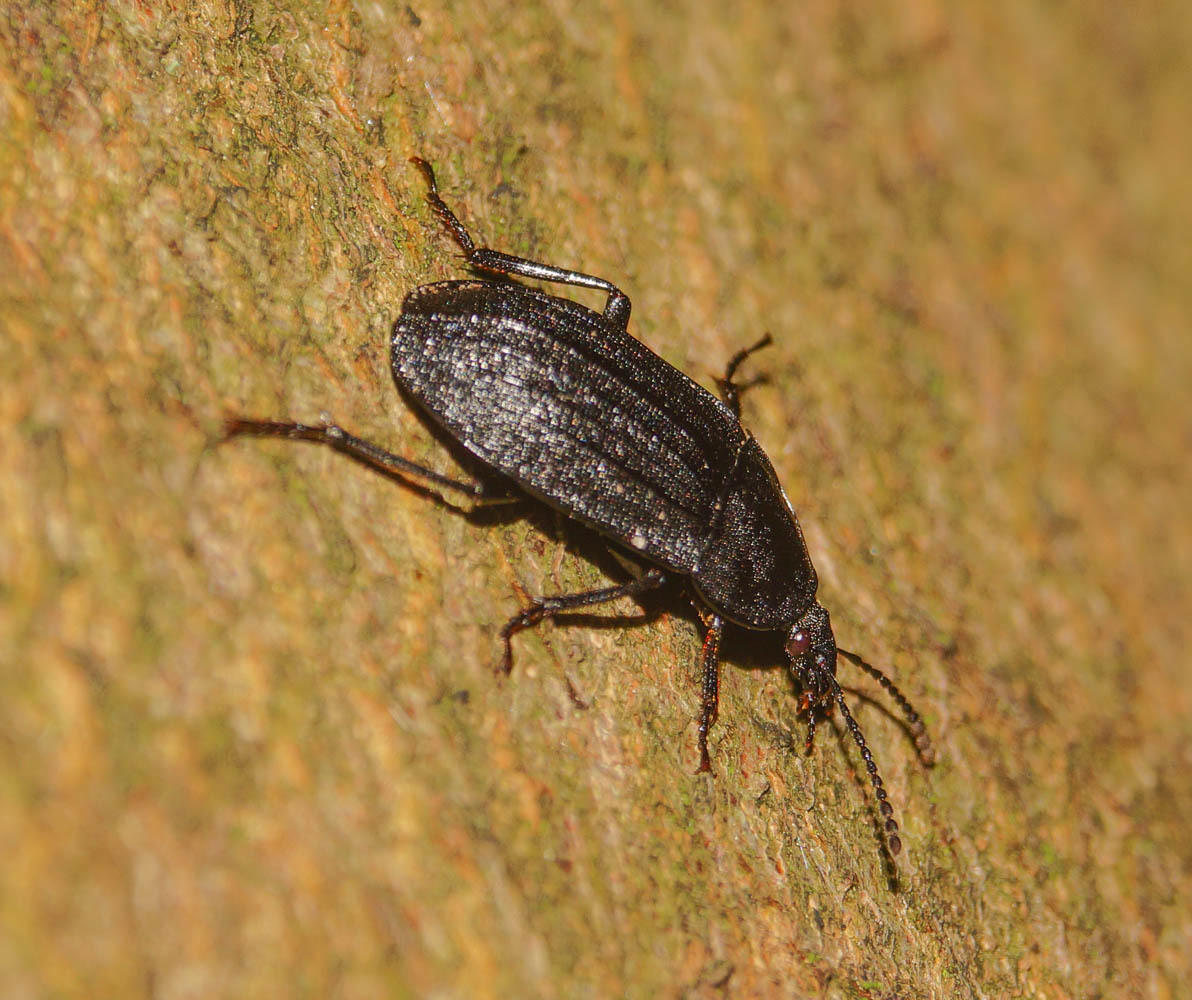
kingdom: Animalia
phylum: Arthropoda
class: Insecta
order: Coleoptera
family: Staphylinidae
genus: Silpha
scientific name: Silpha atrata
